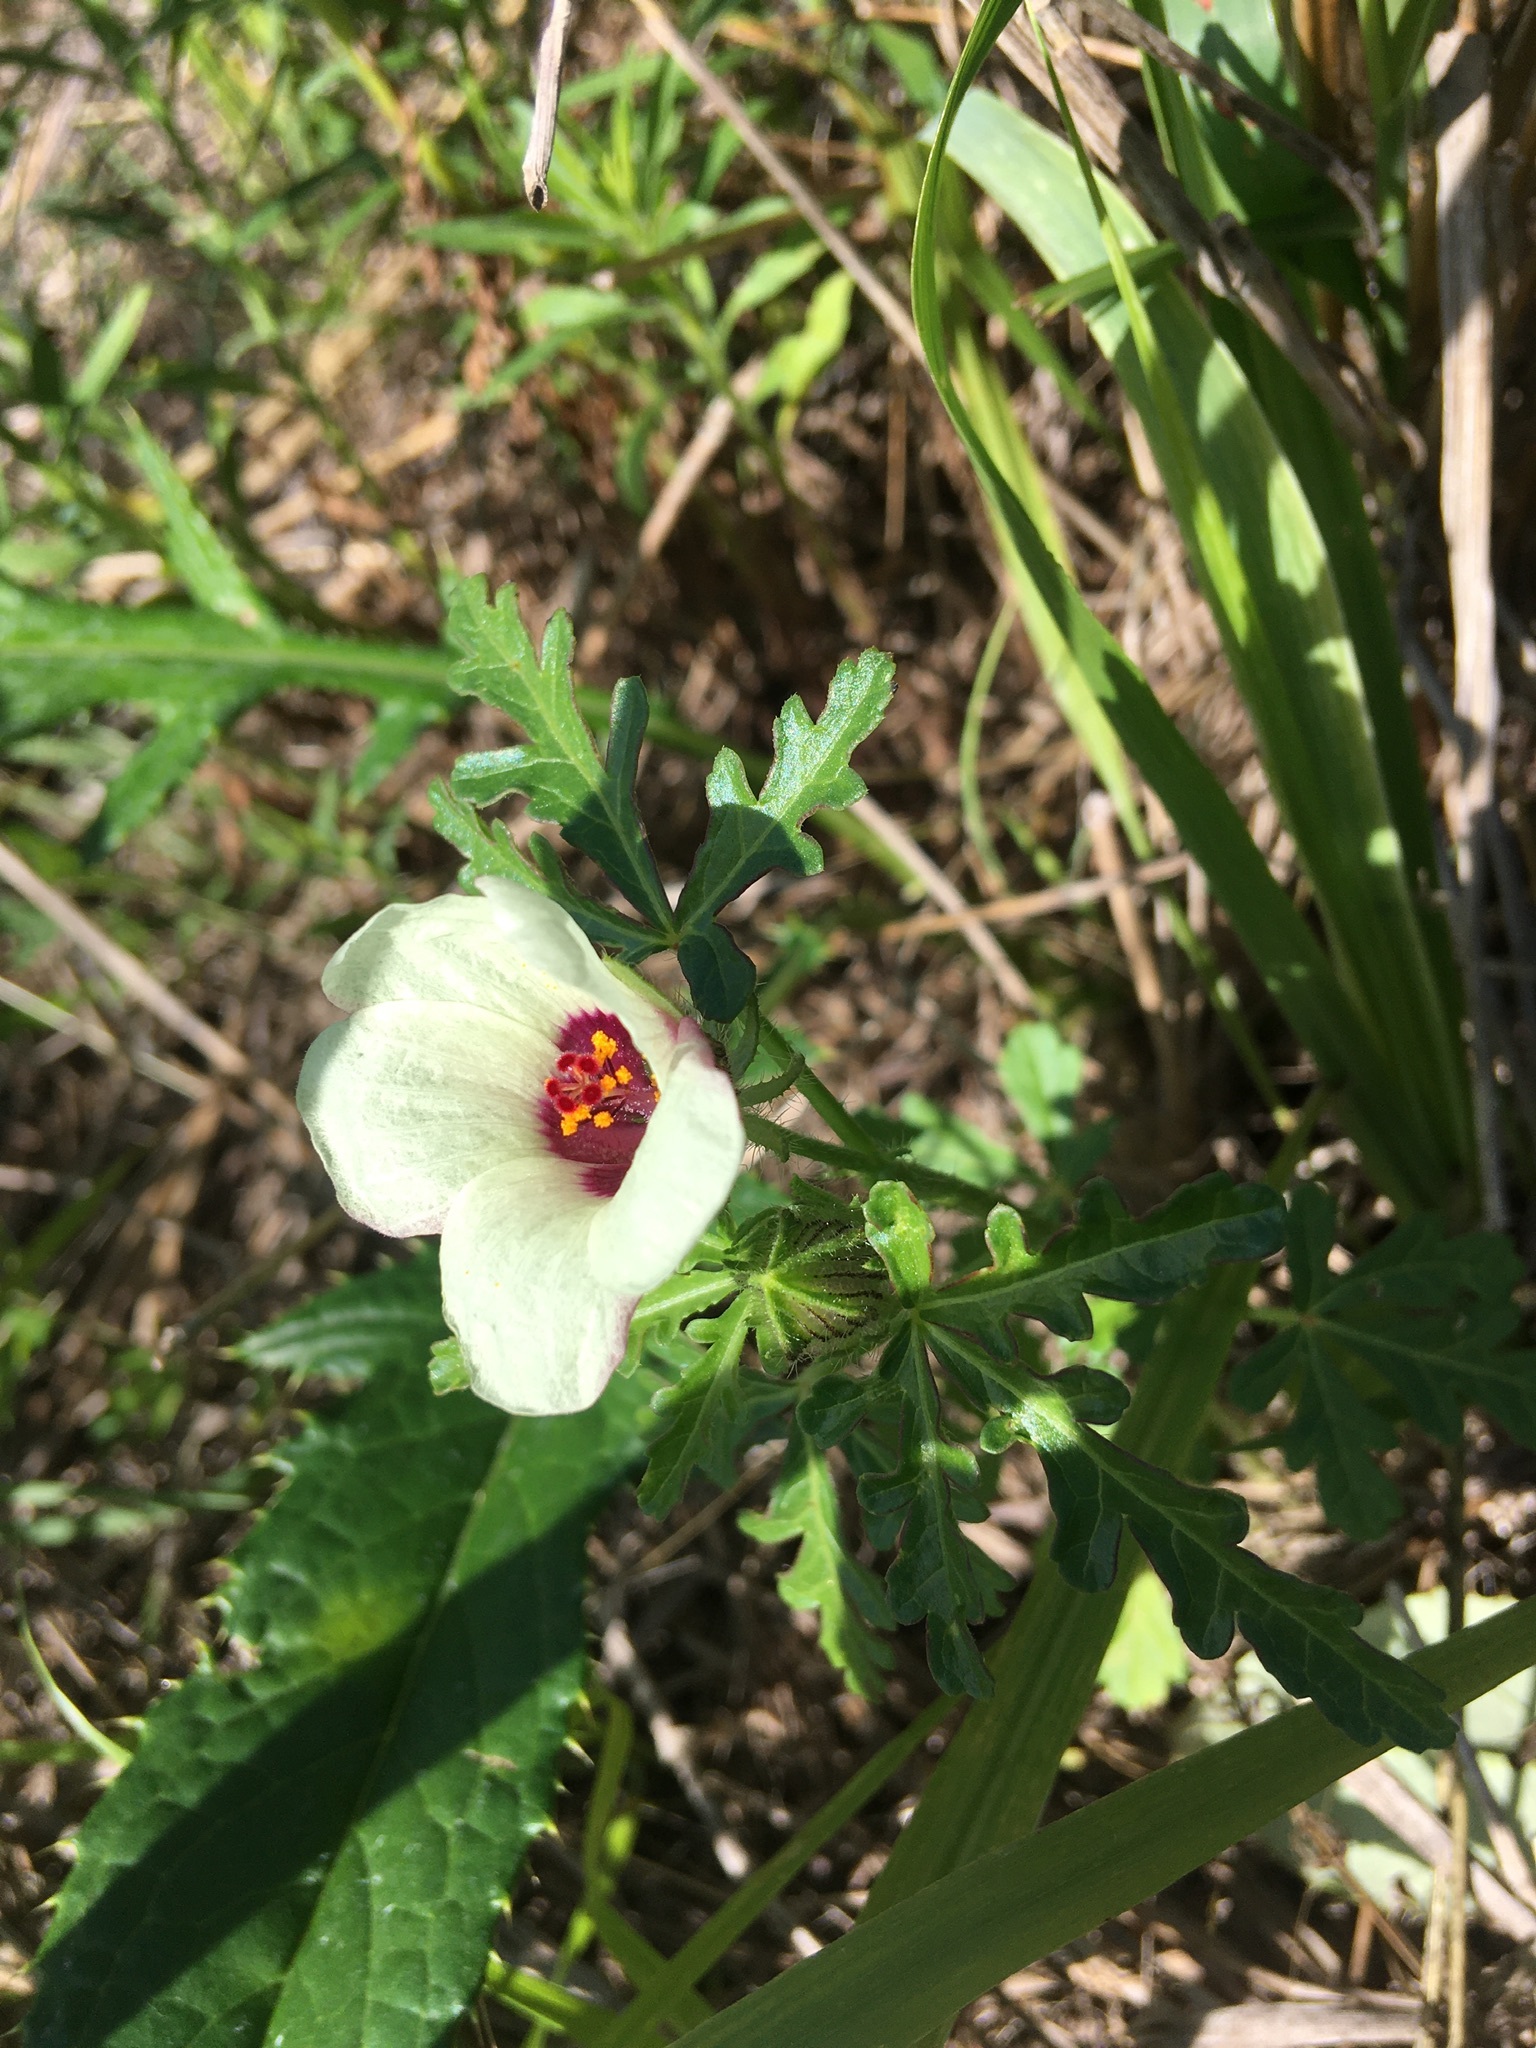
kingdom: Plantae
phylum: Tracheophyta
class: Magnoliopsida
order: Malvales
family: Malvaceae
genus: Hibiscus
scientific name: Hibiscus trionum
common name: Bladder ketmia
